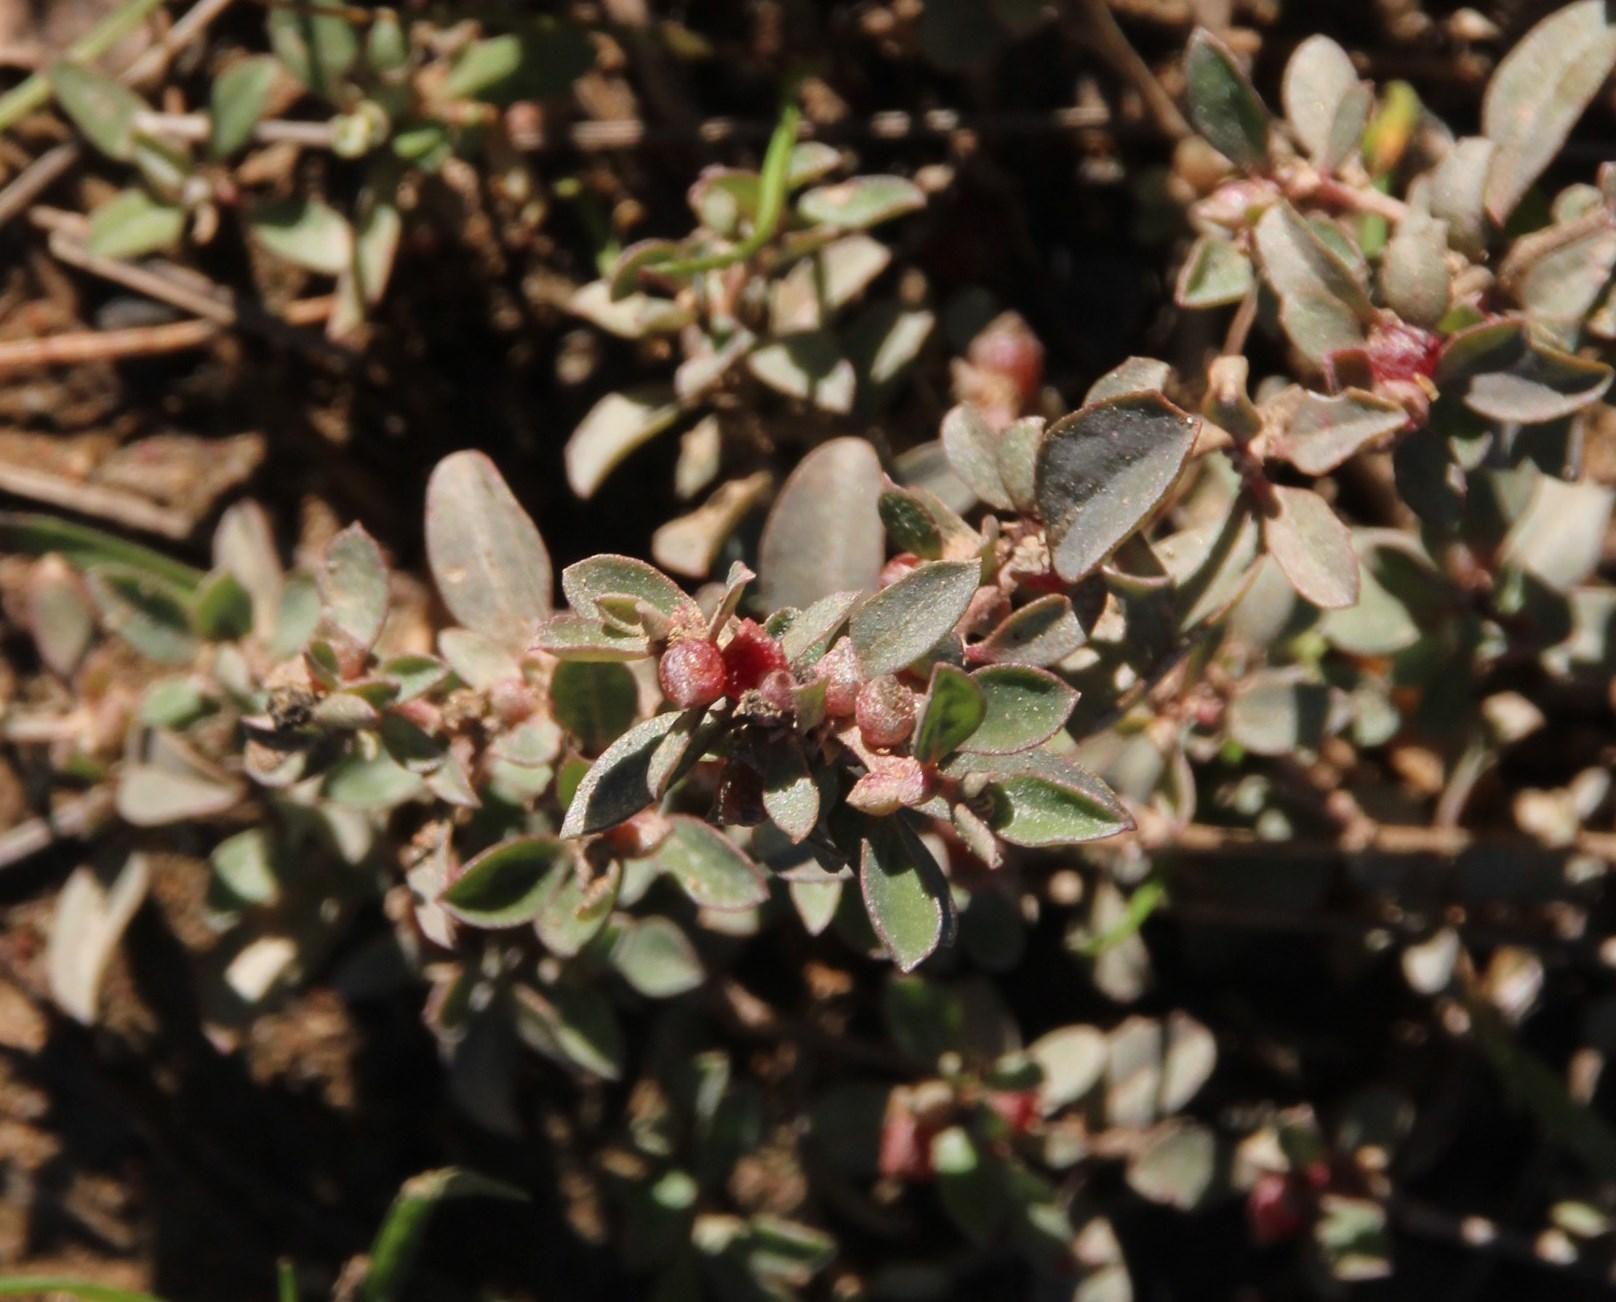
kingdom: Plantae
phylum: Tracheophyta
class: Magnoliopsida
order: Caryophyllales
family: Amaranthaceae
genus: Atriplex
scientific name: Atriplex semibaccata
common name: Australian saltbush
